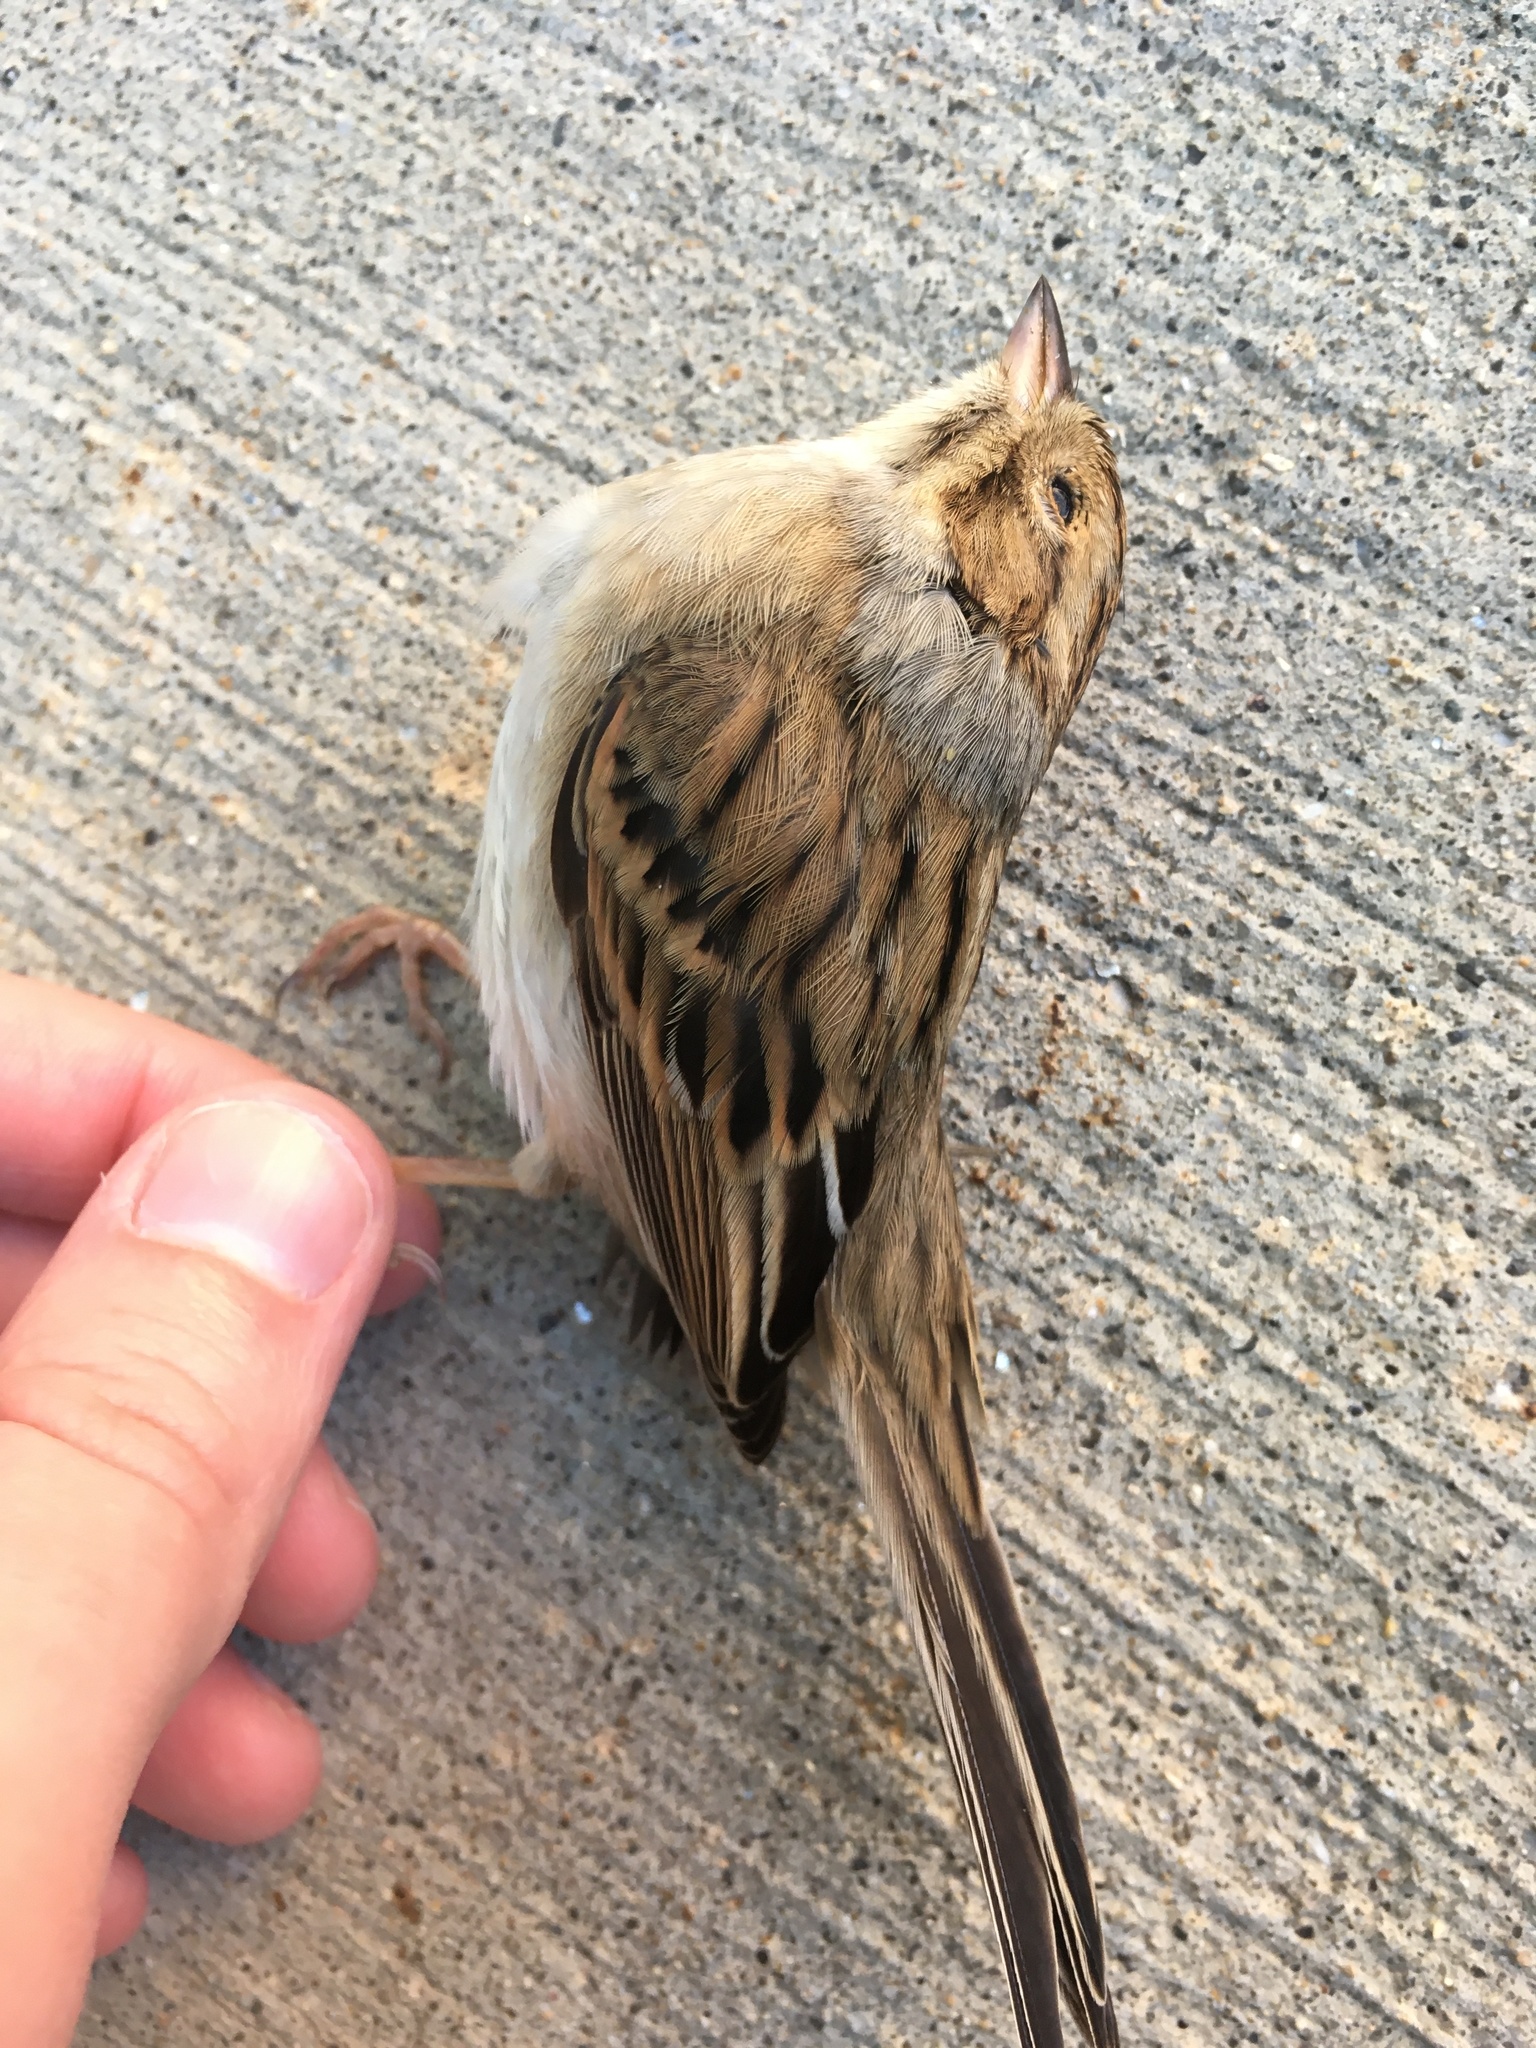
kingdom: Animalia
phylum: Chordata
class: Aves
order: Passeriformes
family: Passerellidae
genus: Spizella
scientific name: Spizella pallida
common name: Clay-colored sparrow
